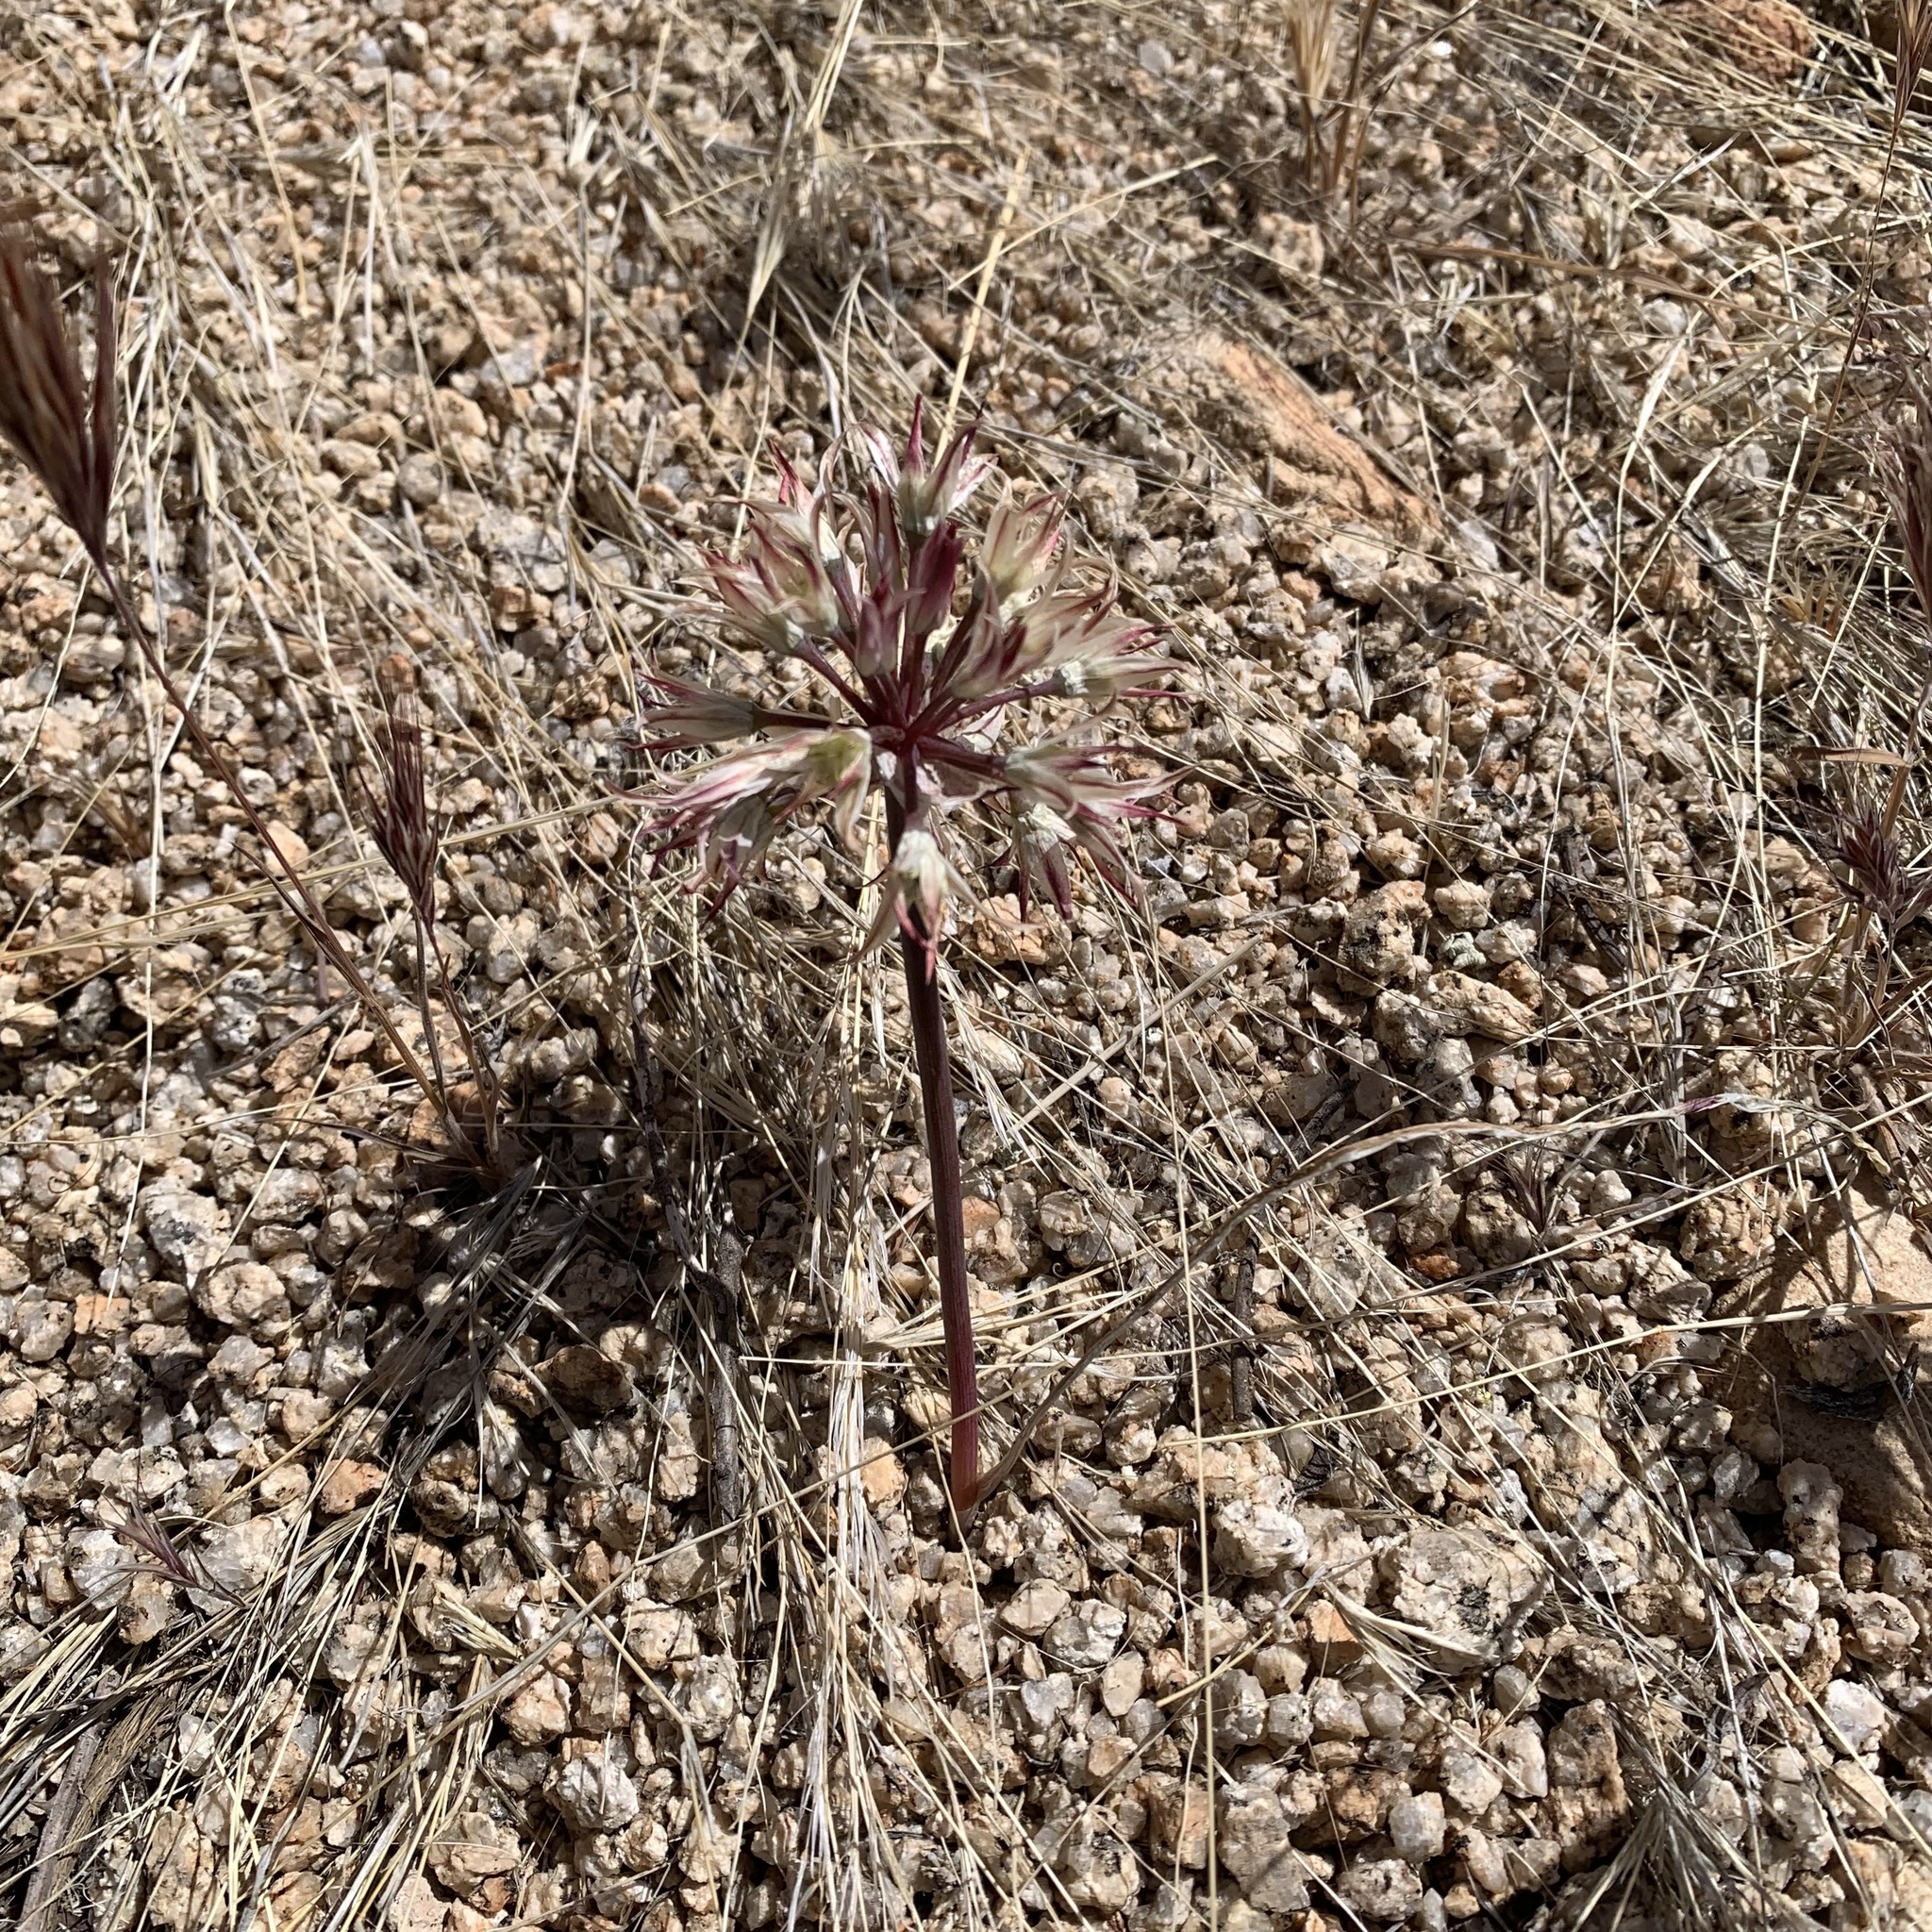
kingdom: Plantae
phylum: Tracheophyta
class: Liliopsida
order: Asparagales
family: Amaryllidaceae
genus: Allium
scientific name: Allium parishii
